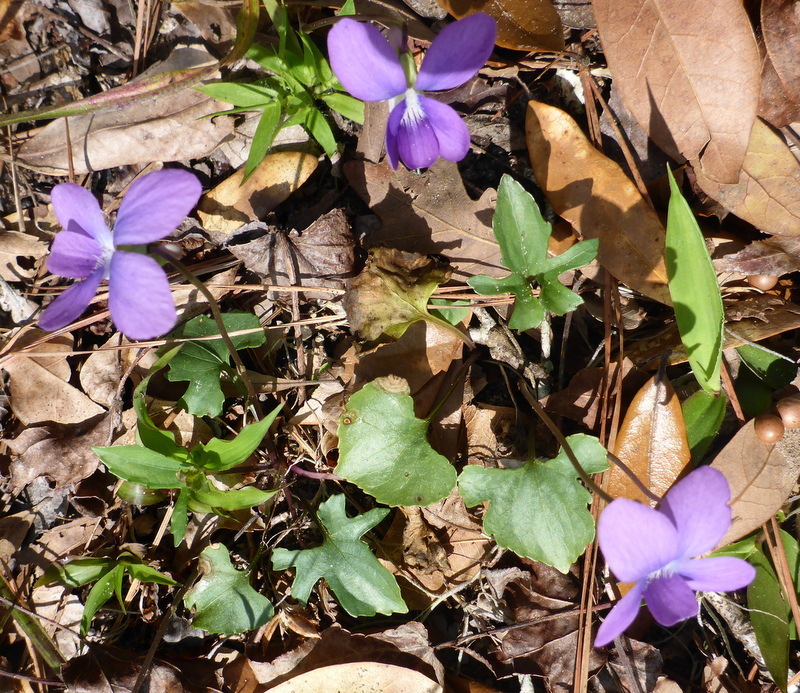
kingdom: Plantae
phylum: Tracheophyta
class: Magnoliopsida
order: Malpighiales
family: Violaceae
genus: Viola
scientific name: Viola sororia
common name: Dooryard violet
